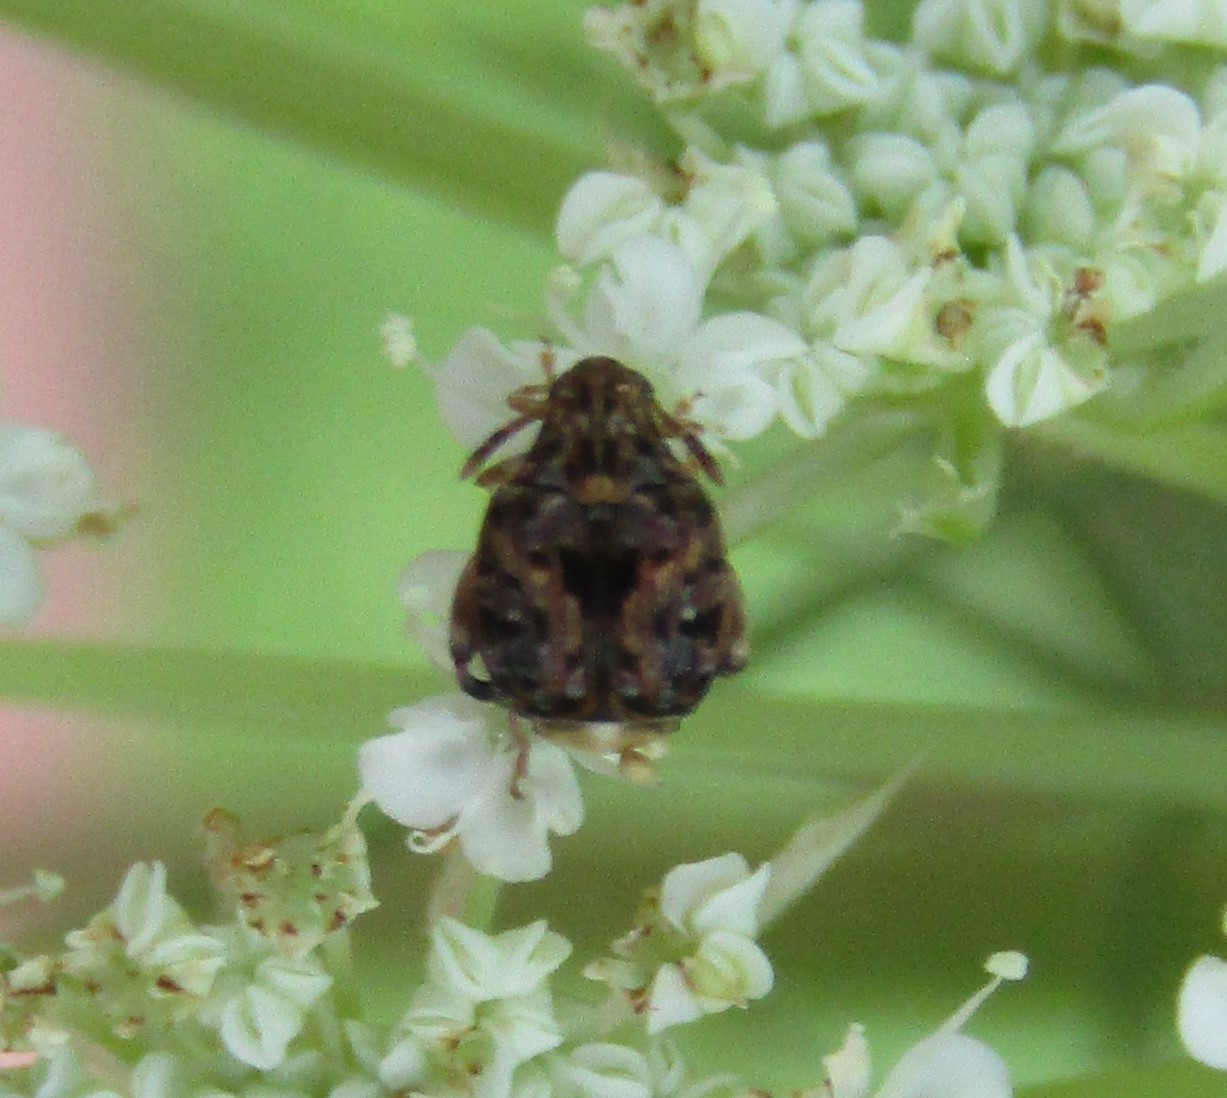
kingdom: Animalia
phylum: Arthropoda
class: Insecta
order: Coleoptera
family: Chrysomelidae
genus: Gibbobruchus
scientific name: Gibbobruchus mimus
